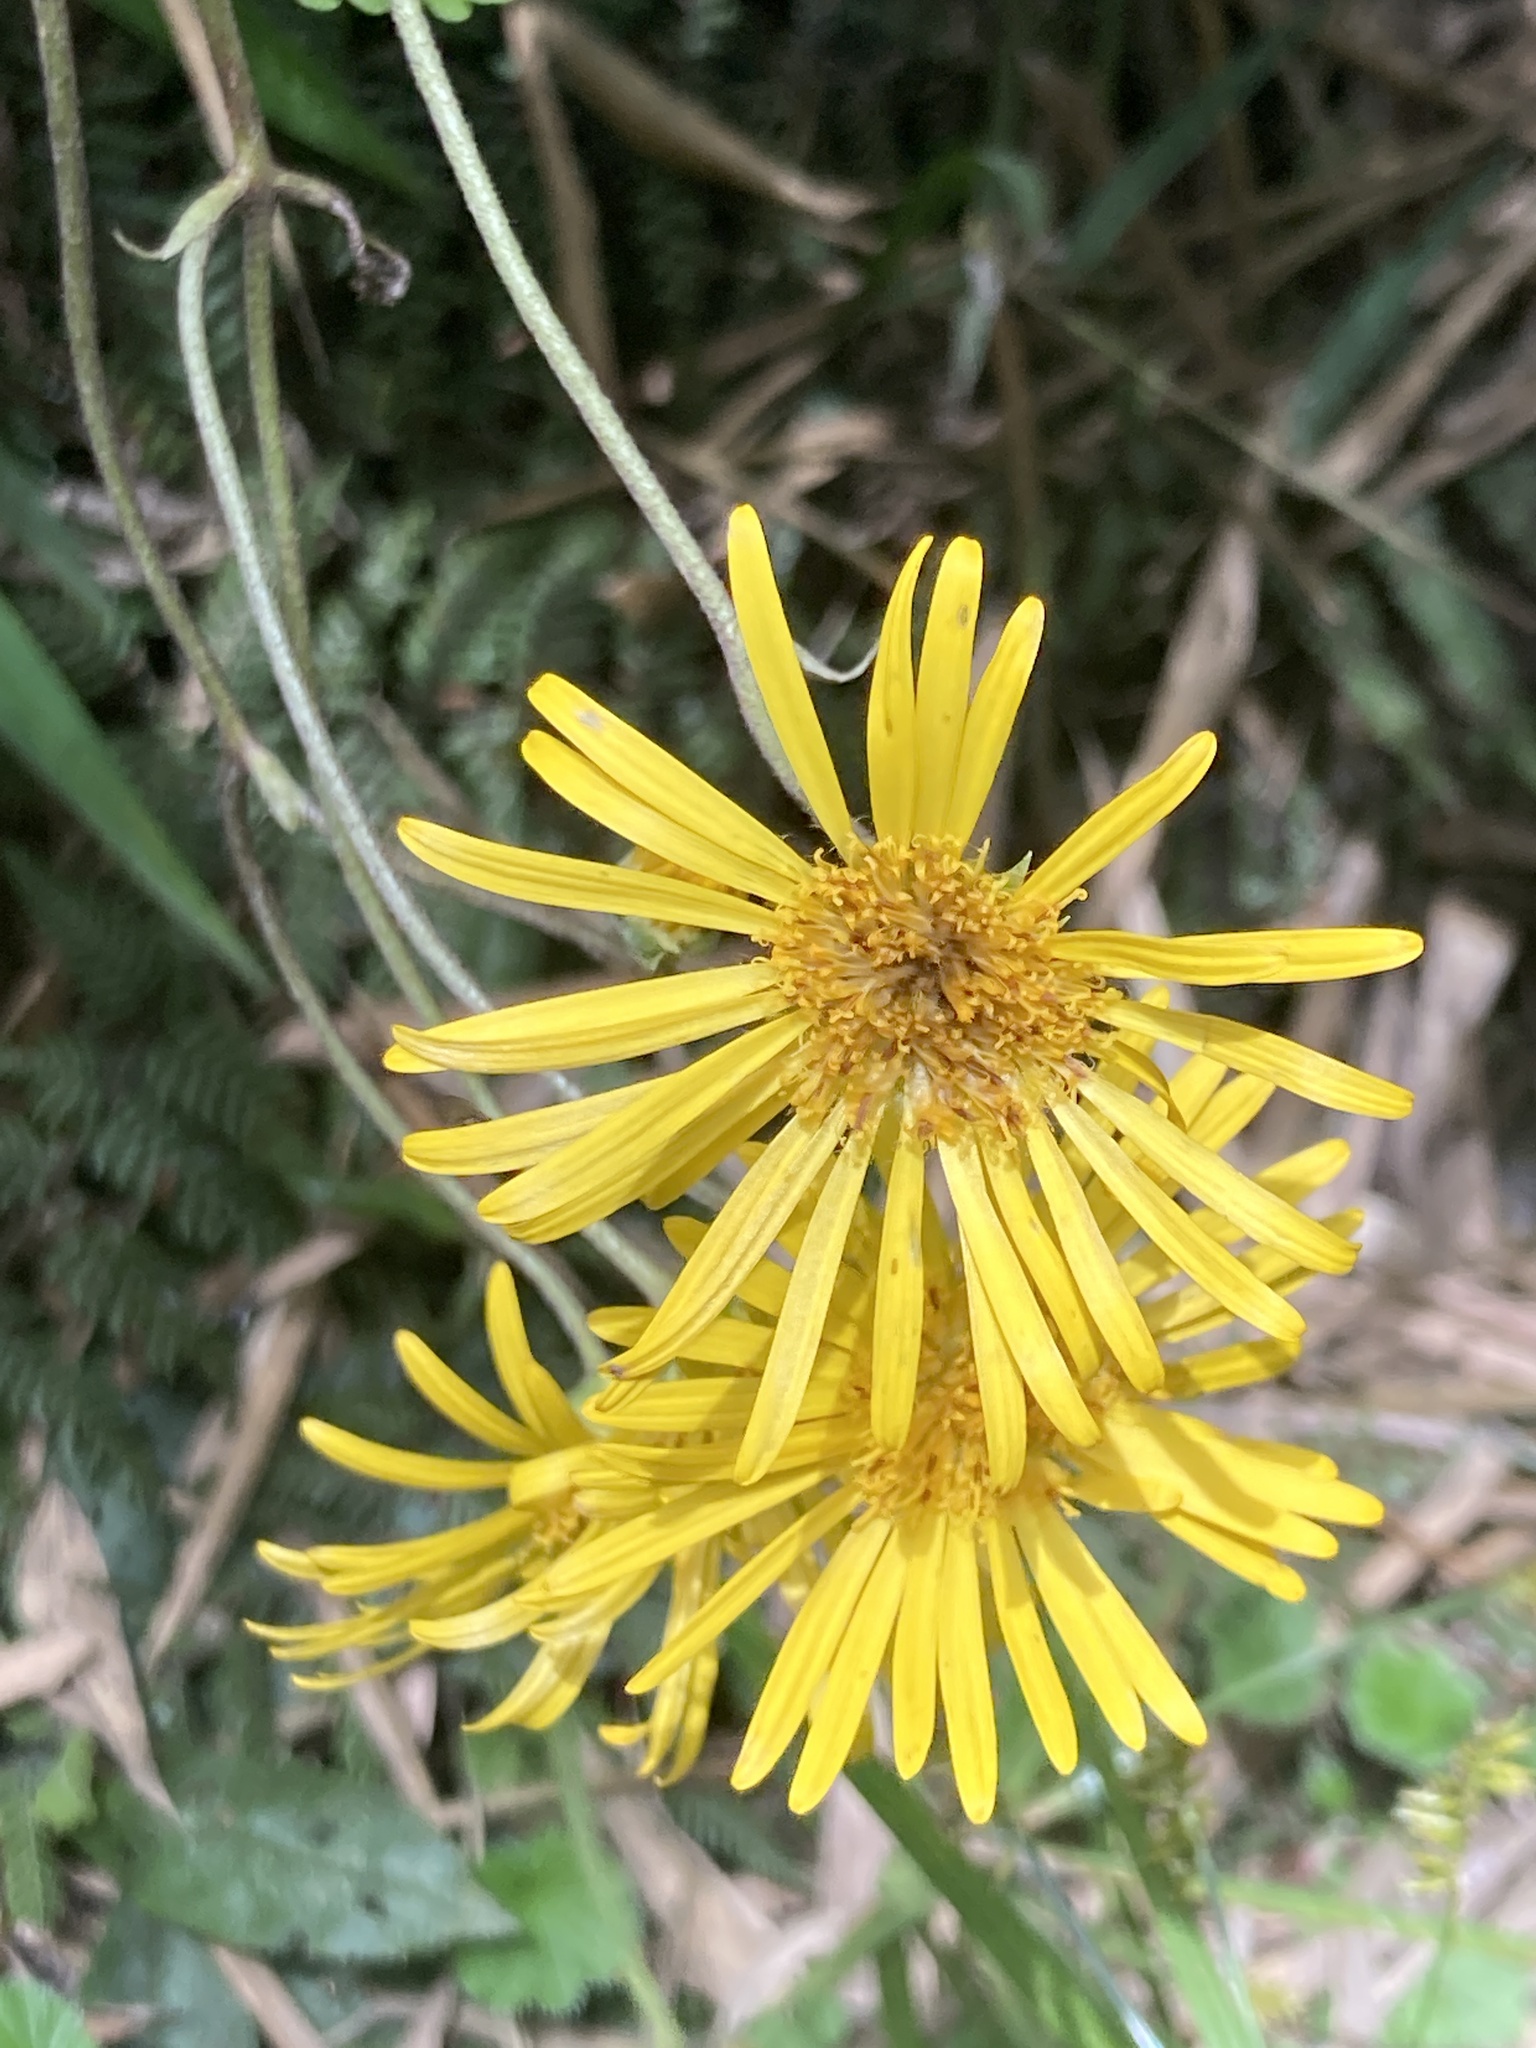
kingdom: Plantae
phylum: Tracheophyta
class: Magnoliopsida
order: Asterales
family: Asteraceae
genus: Munnozia
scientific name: Munnozia senecionidis
